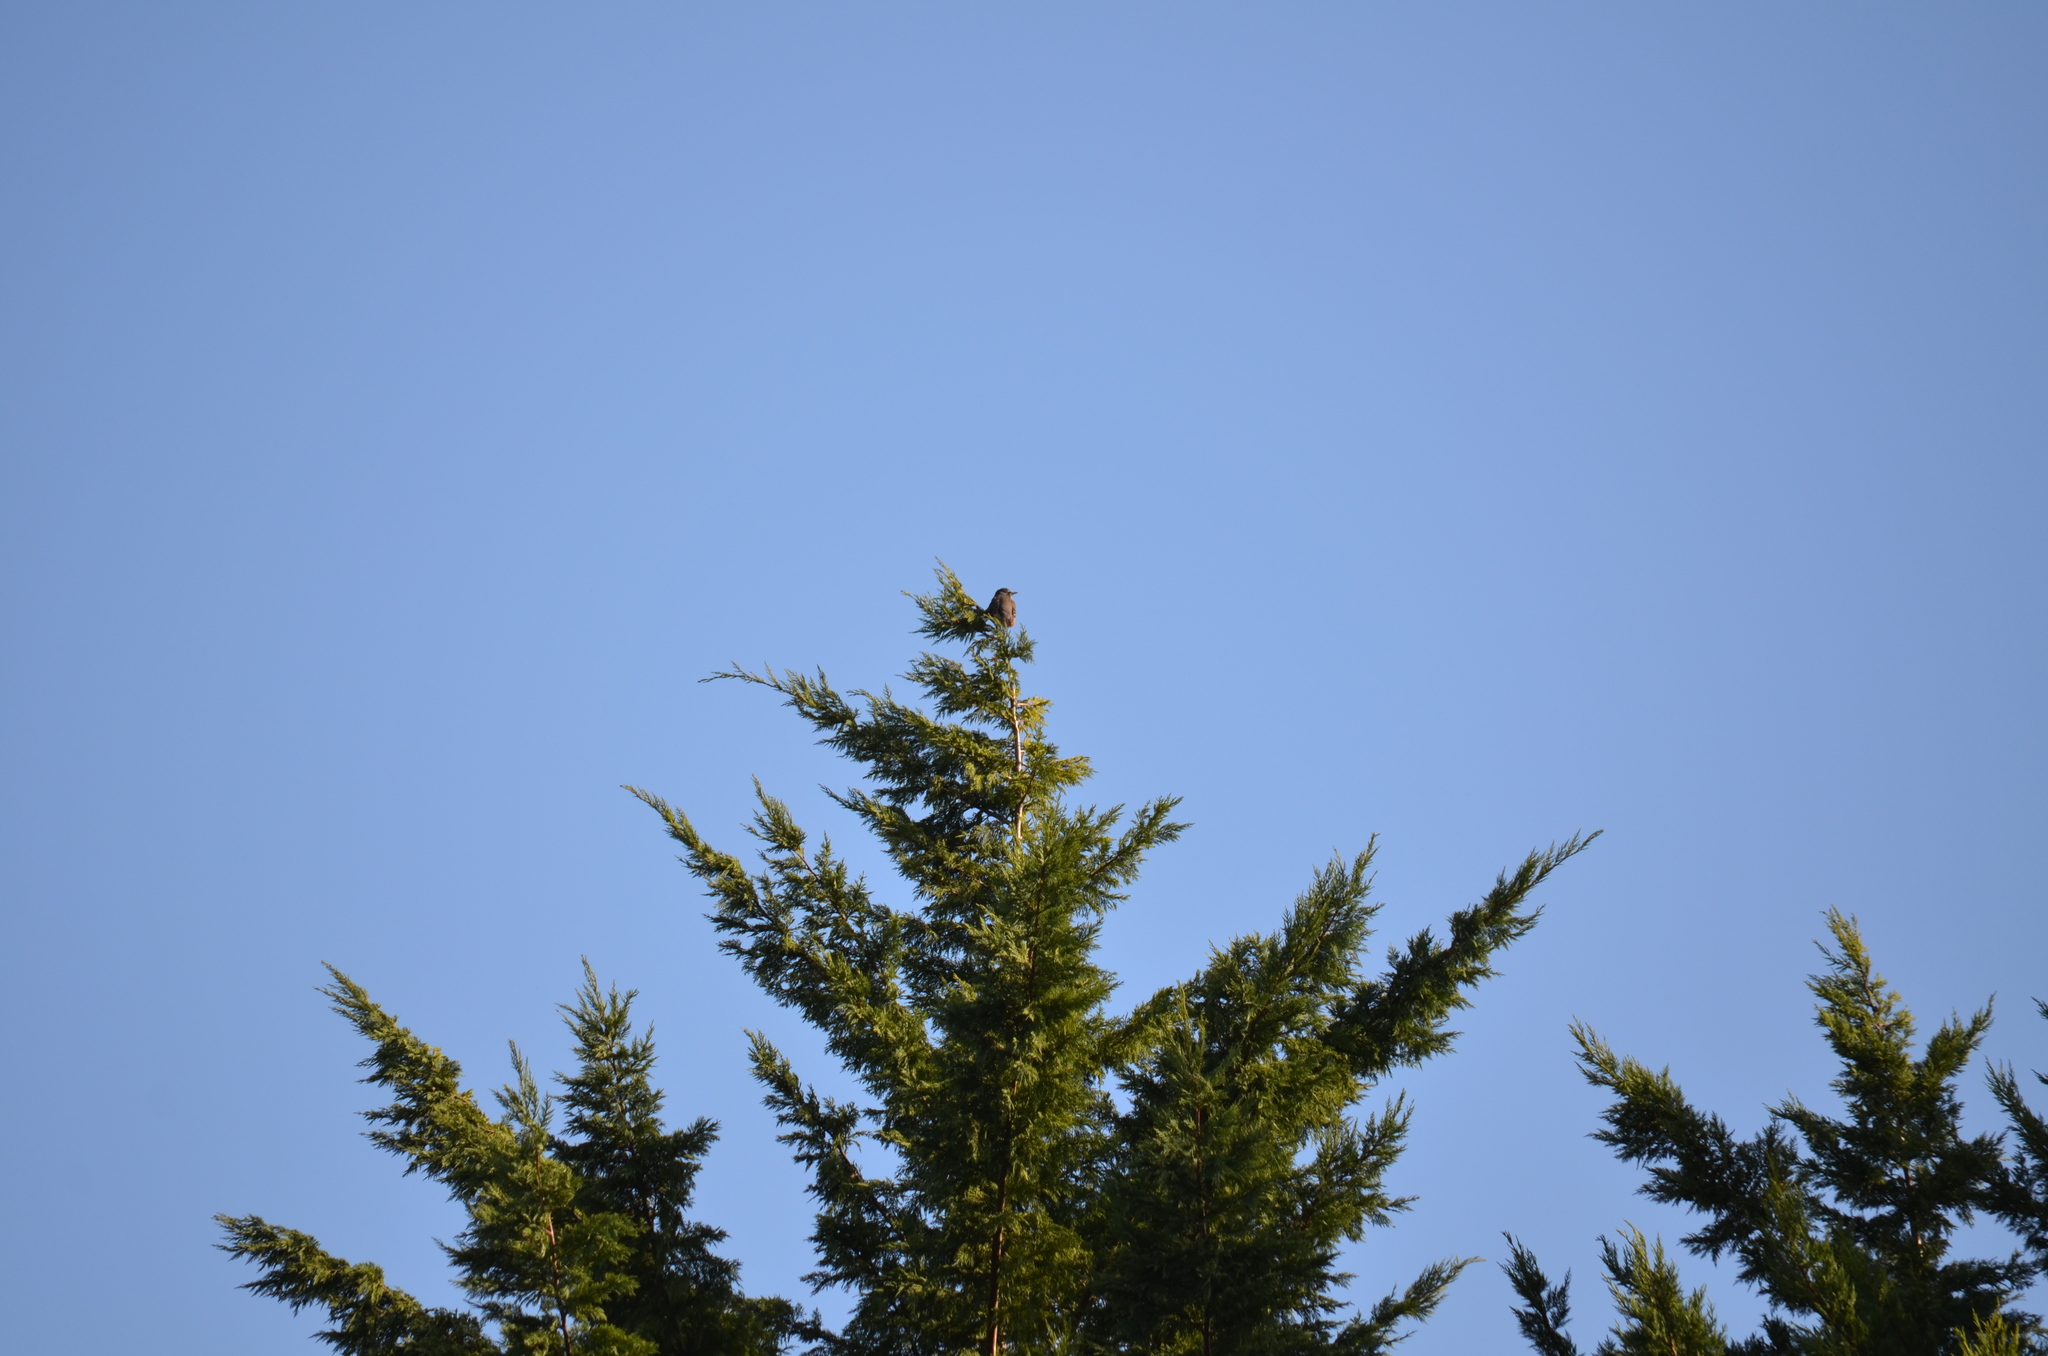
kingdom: Animalia
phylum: Chordata
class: Aves
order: Passeriformes
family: Turdidae
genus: Turdus
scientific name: Turdus migratorius
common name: American robin
